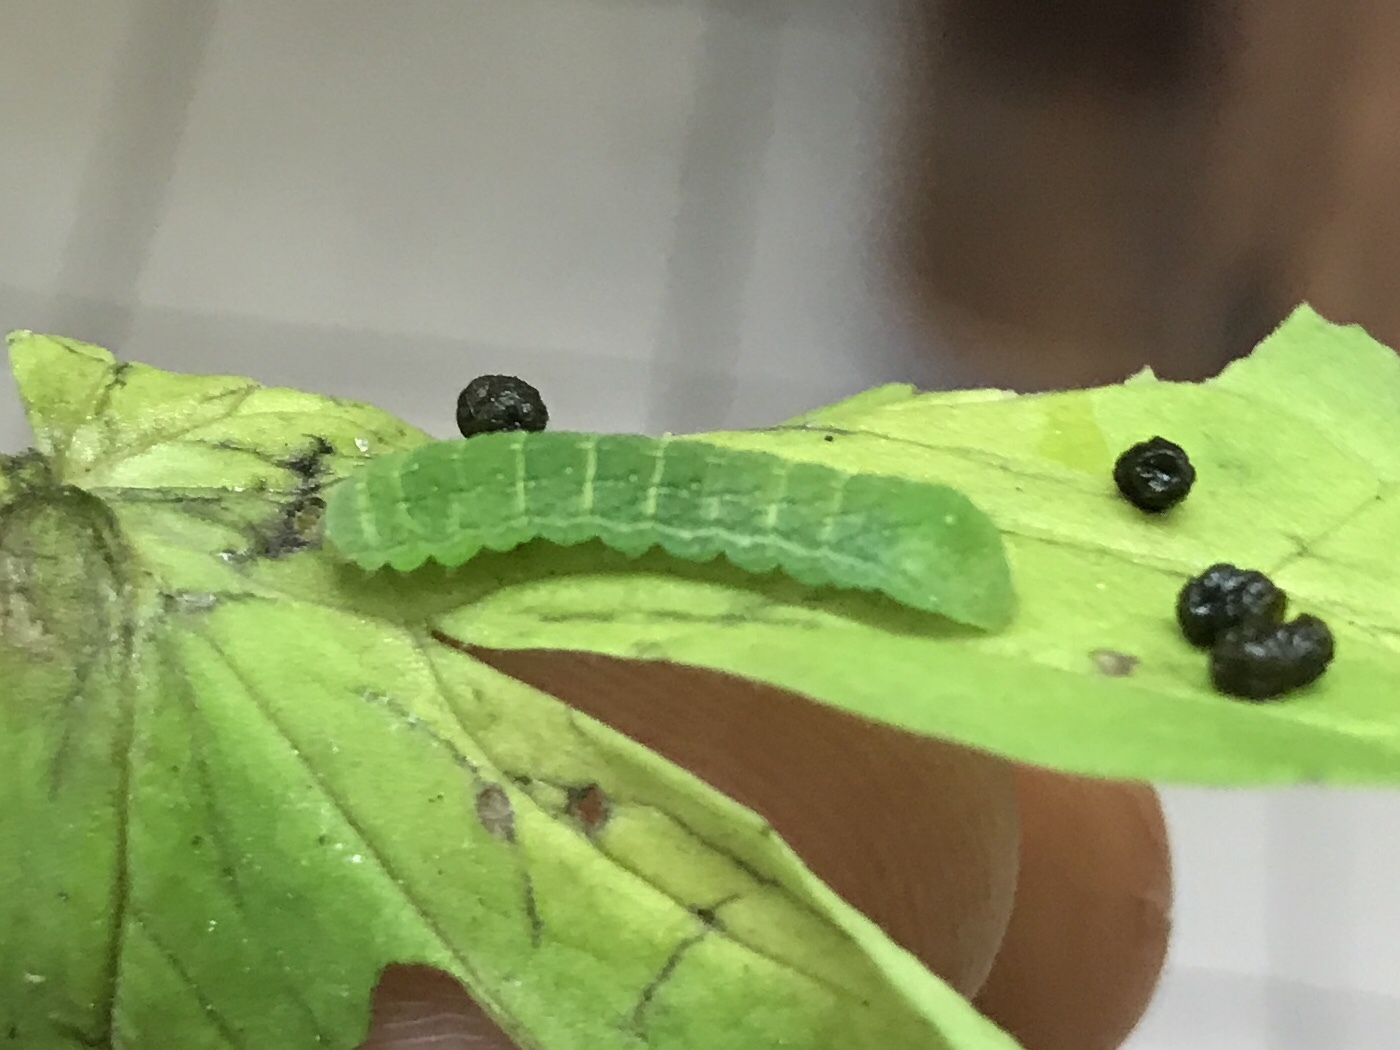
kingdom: Animalia
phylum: Arthropoda
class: Insecta
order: Lepidoptera
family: Noctuidae
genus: Euplexia
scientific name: Euplexia benesimilis
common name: American angle shades
